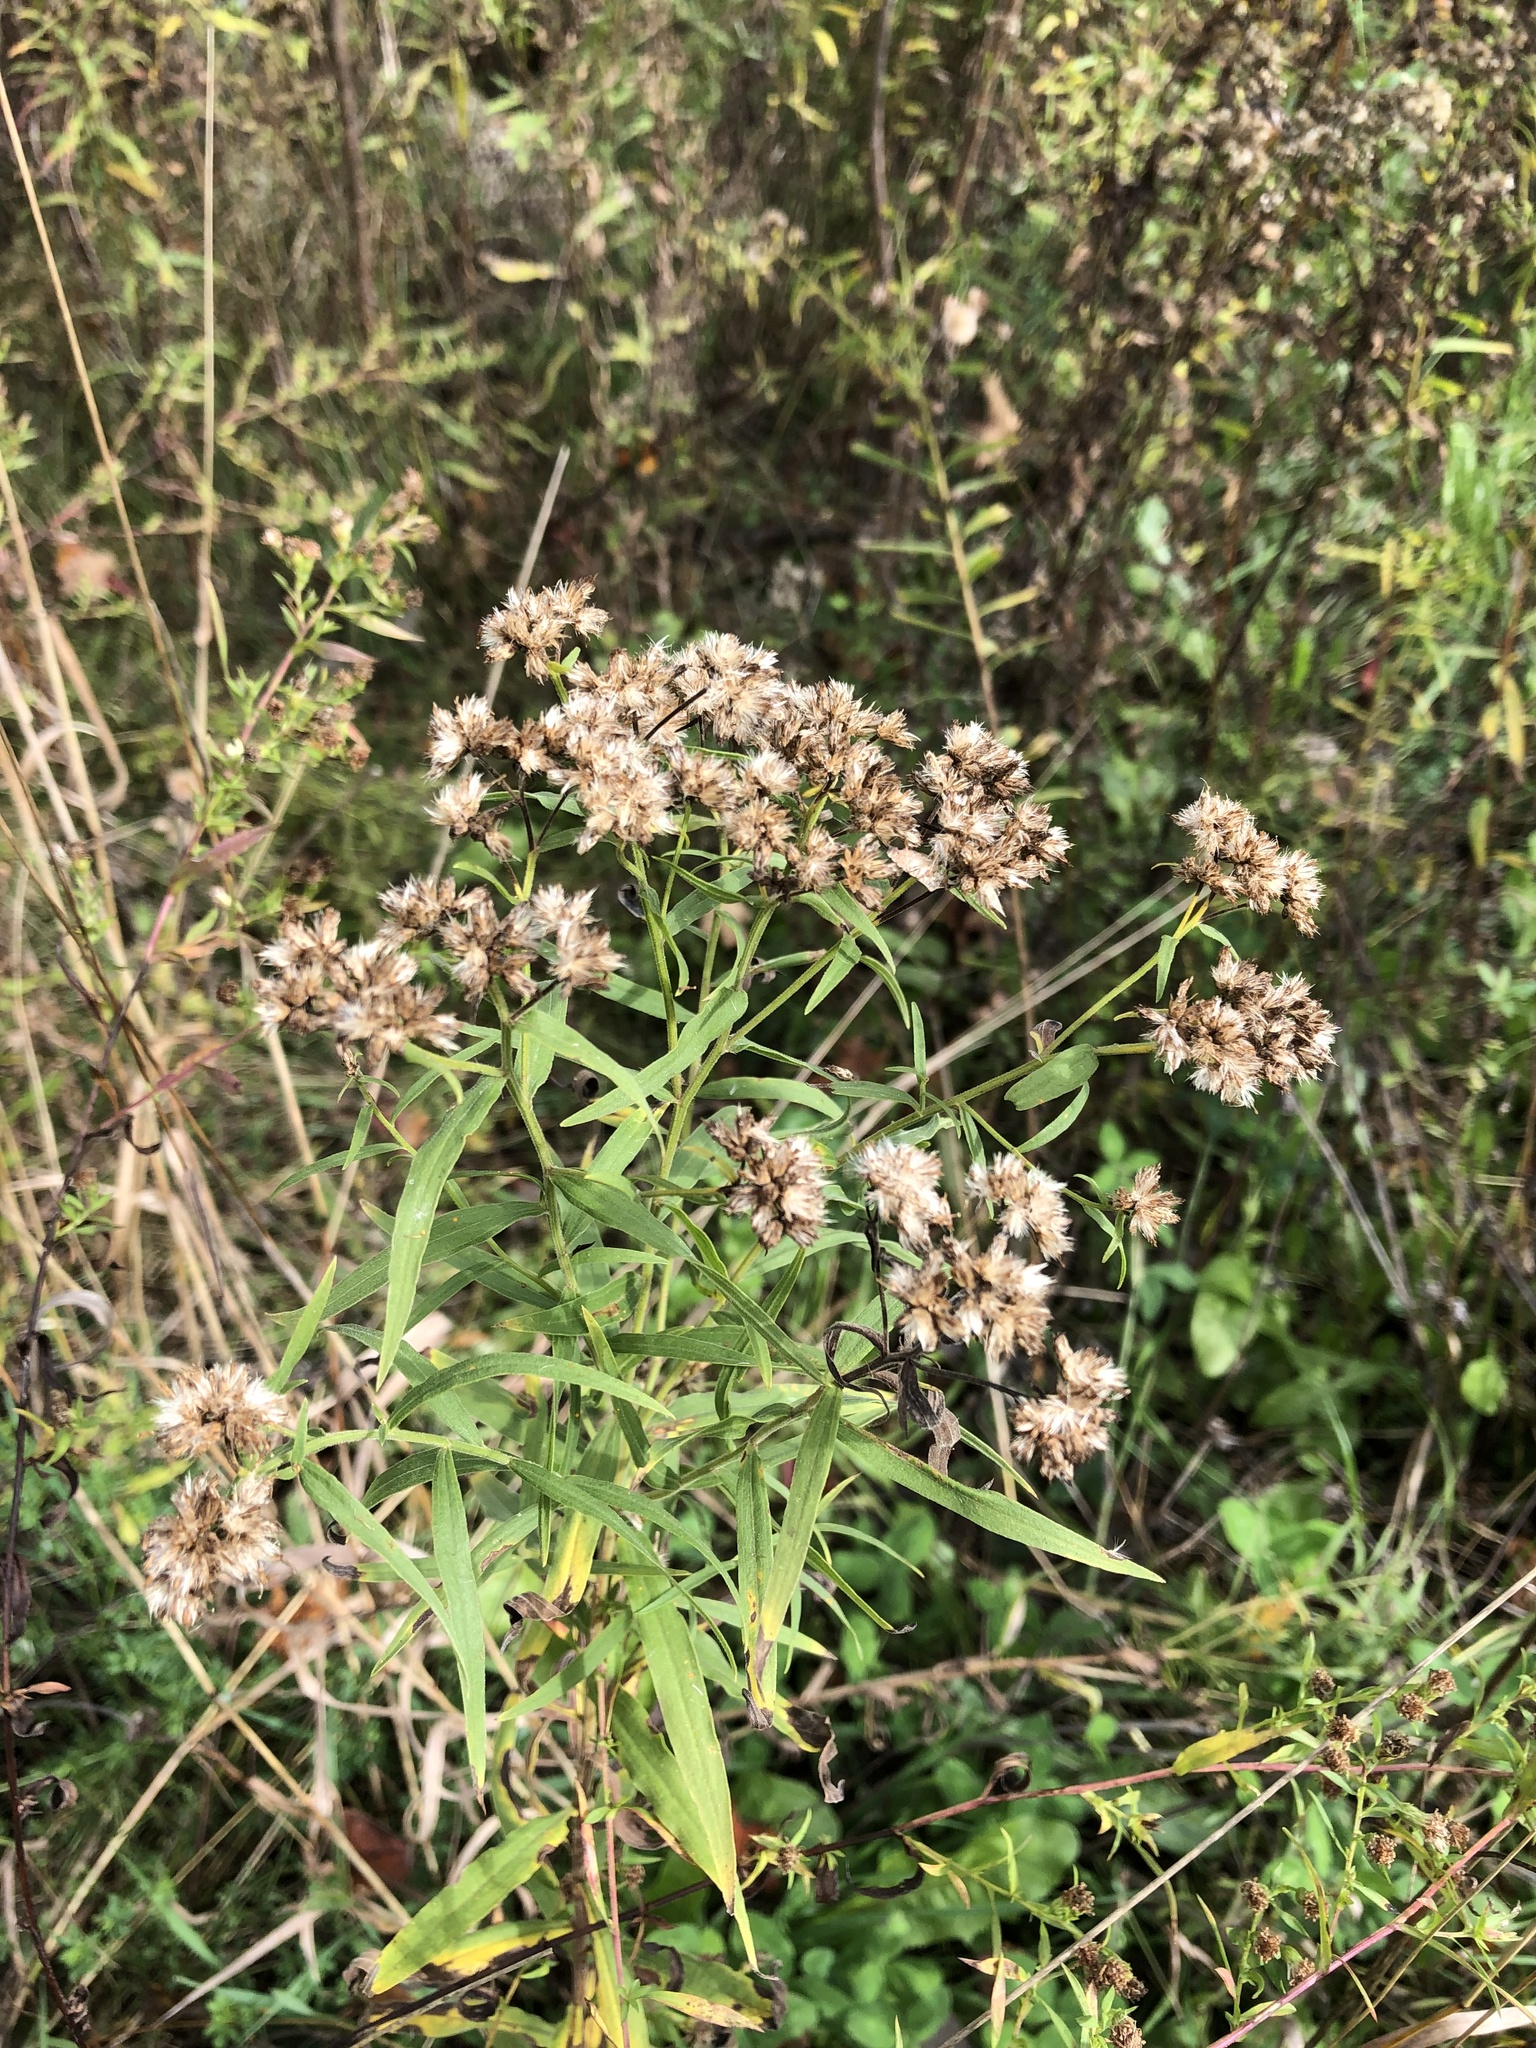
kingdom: Plantae
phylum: Tracheophyta
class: Magnoliopsida
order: Asterales
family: Asteraceae
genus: Euthamia
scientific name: Euthamia graminifolia
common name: Common goldentop
